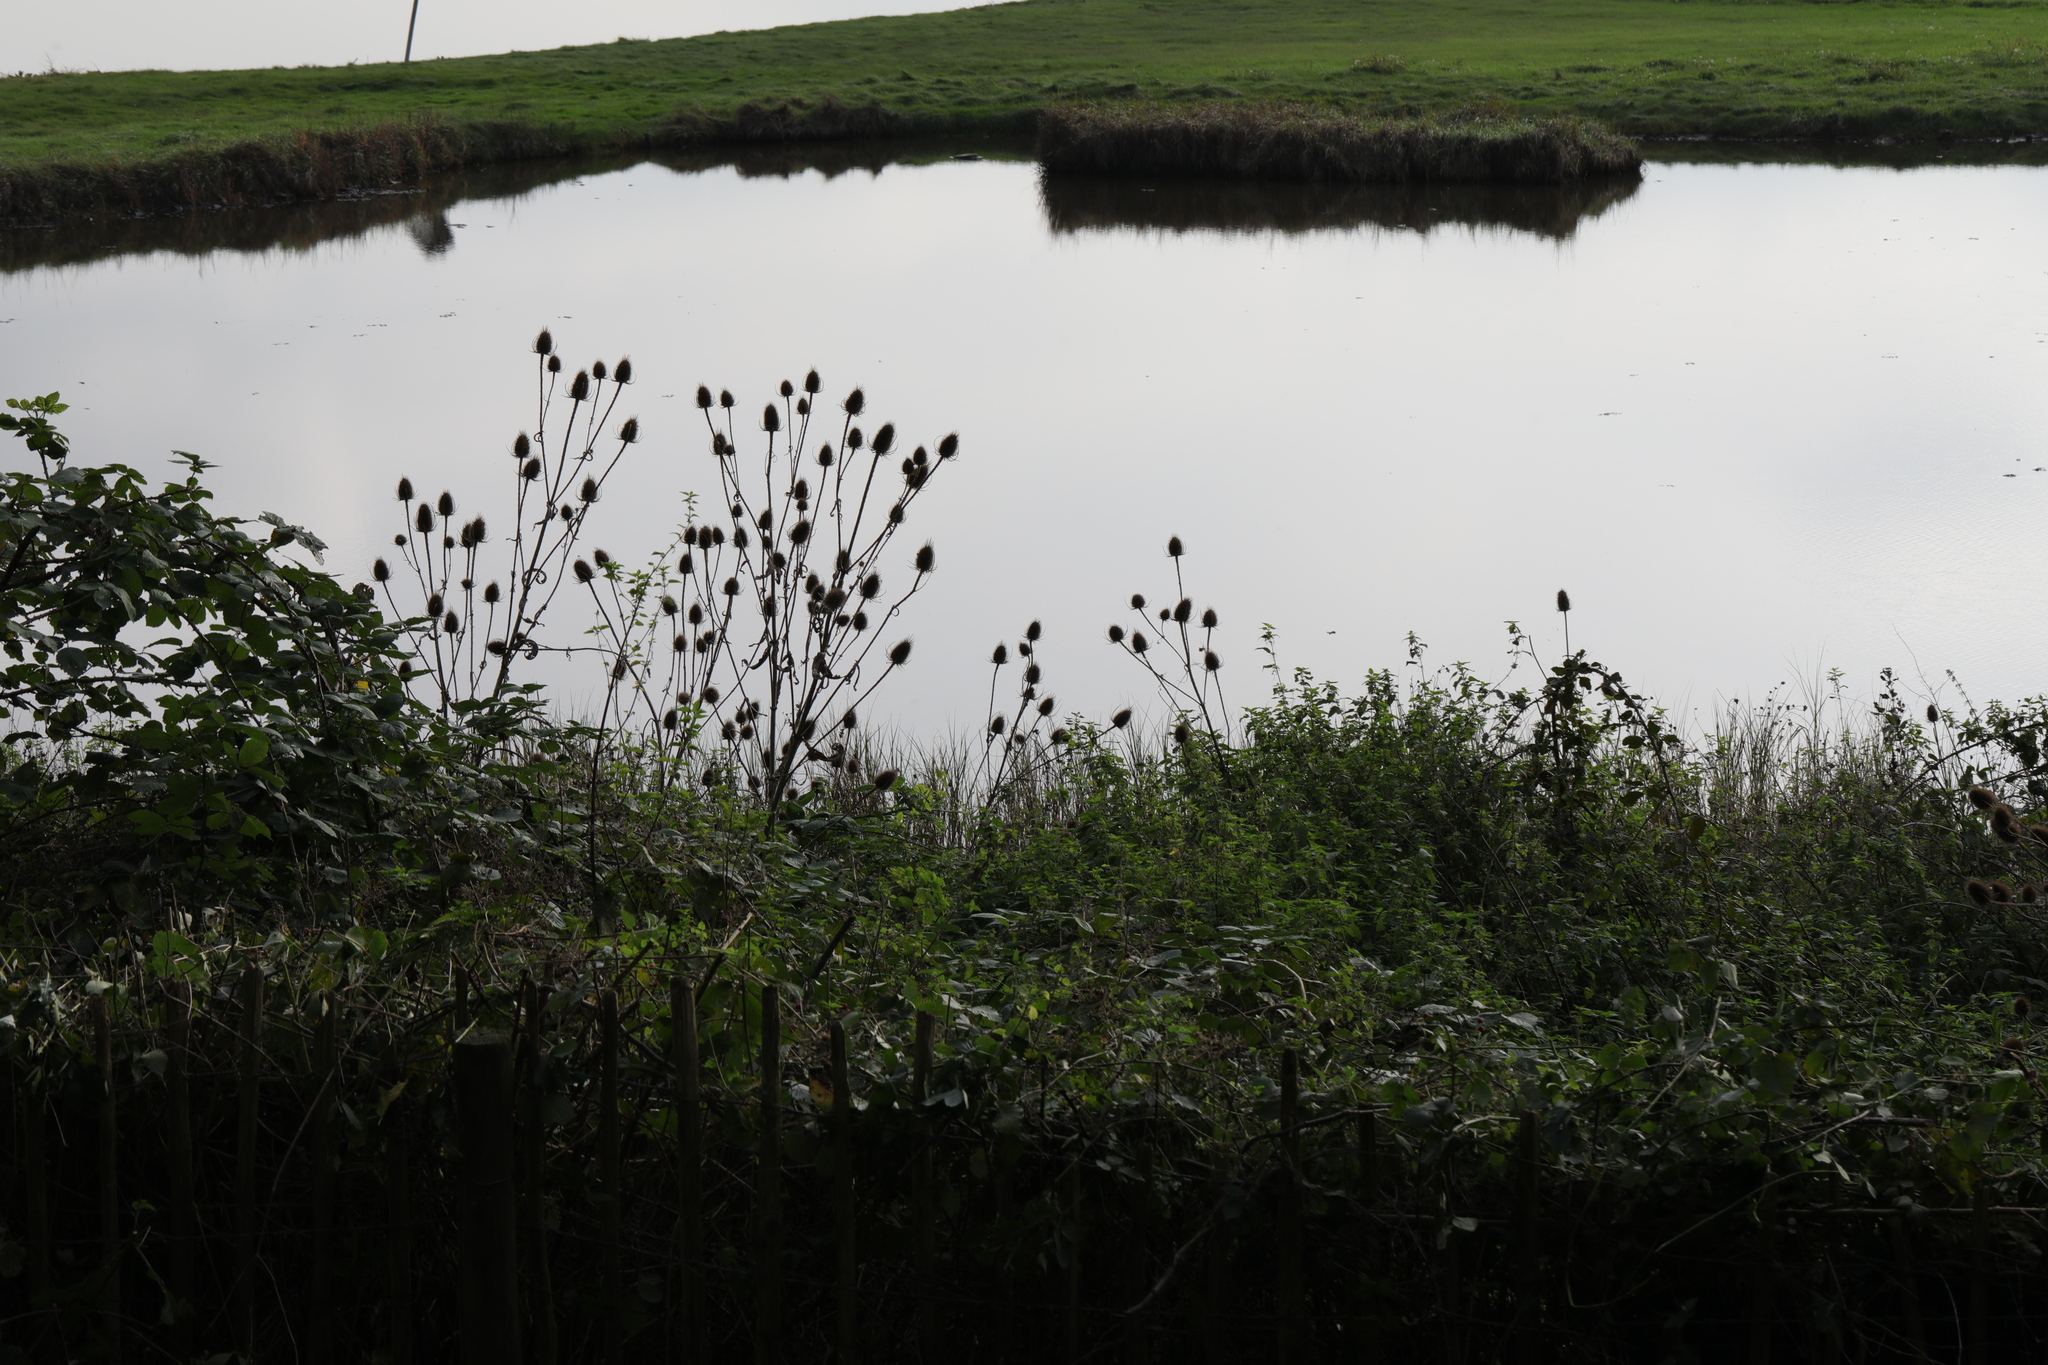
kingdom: Plantae
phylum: Tracheophyta
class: Magnoliopsida
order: Dipsacales
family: Caprifoliaceae
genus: Dipsacus
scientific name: Dipsacus fullonum
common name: Teasel
